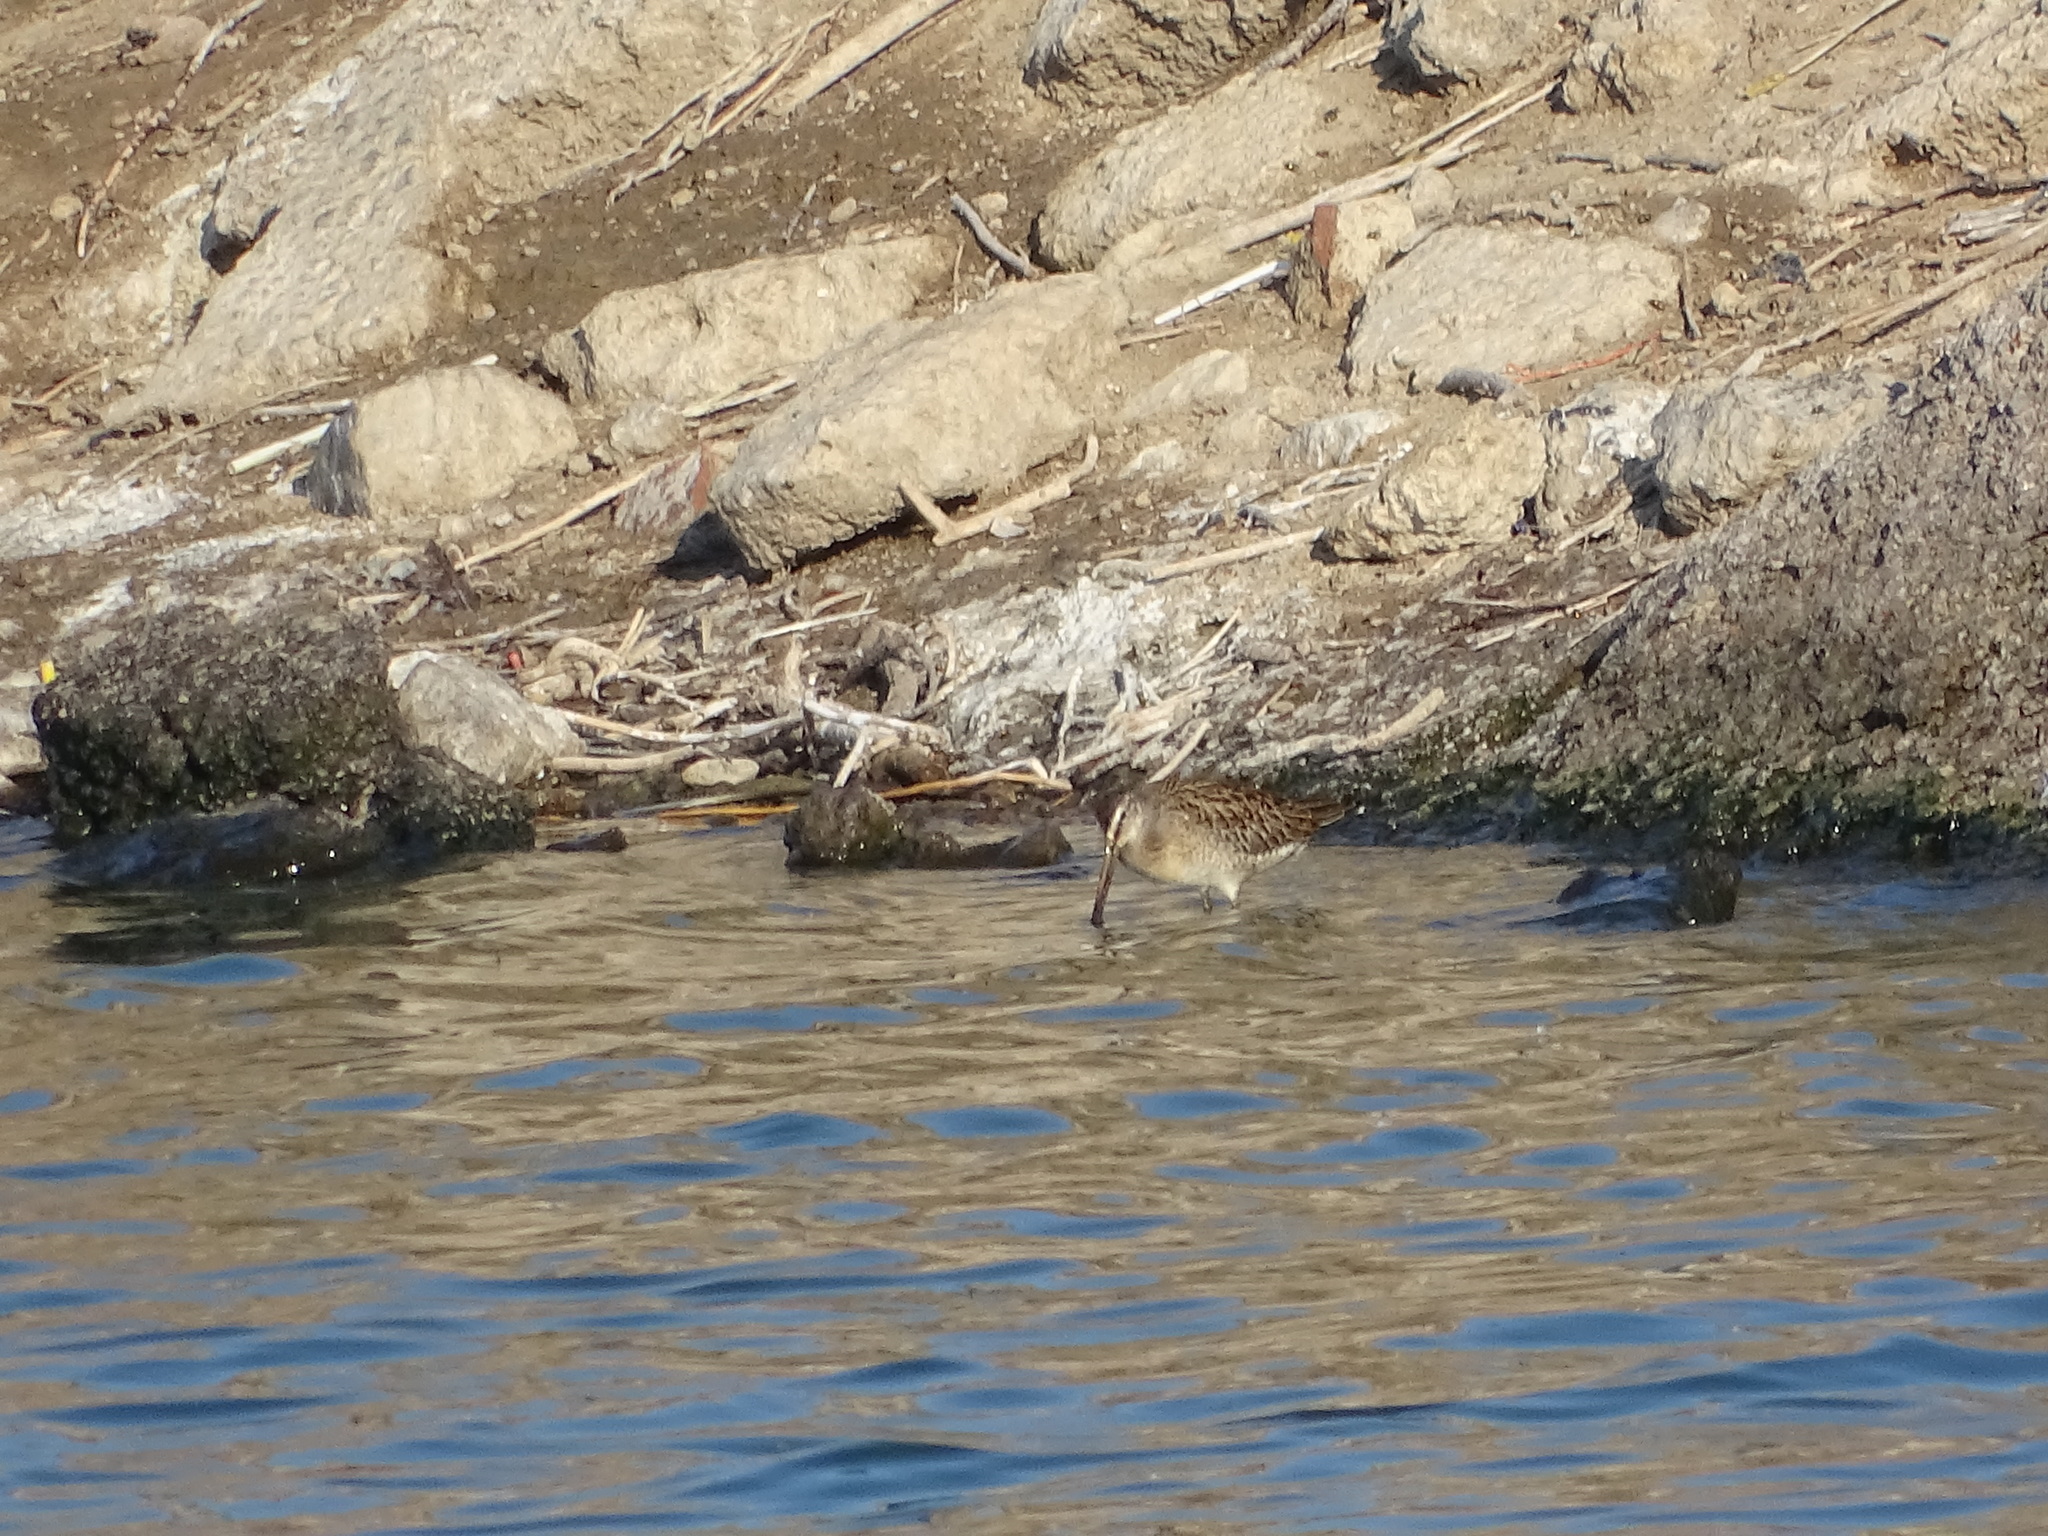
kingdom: Animalia
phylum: Chordata
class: Aves
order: Charadriiformes
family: Scolopacidae
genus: Limnodromus
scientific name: Limnodromus griseus
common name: Short-billed dowitcher
